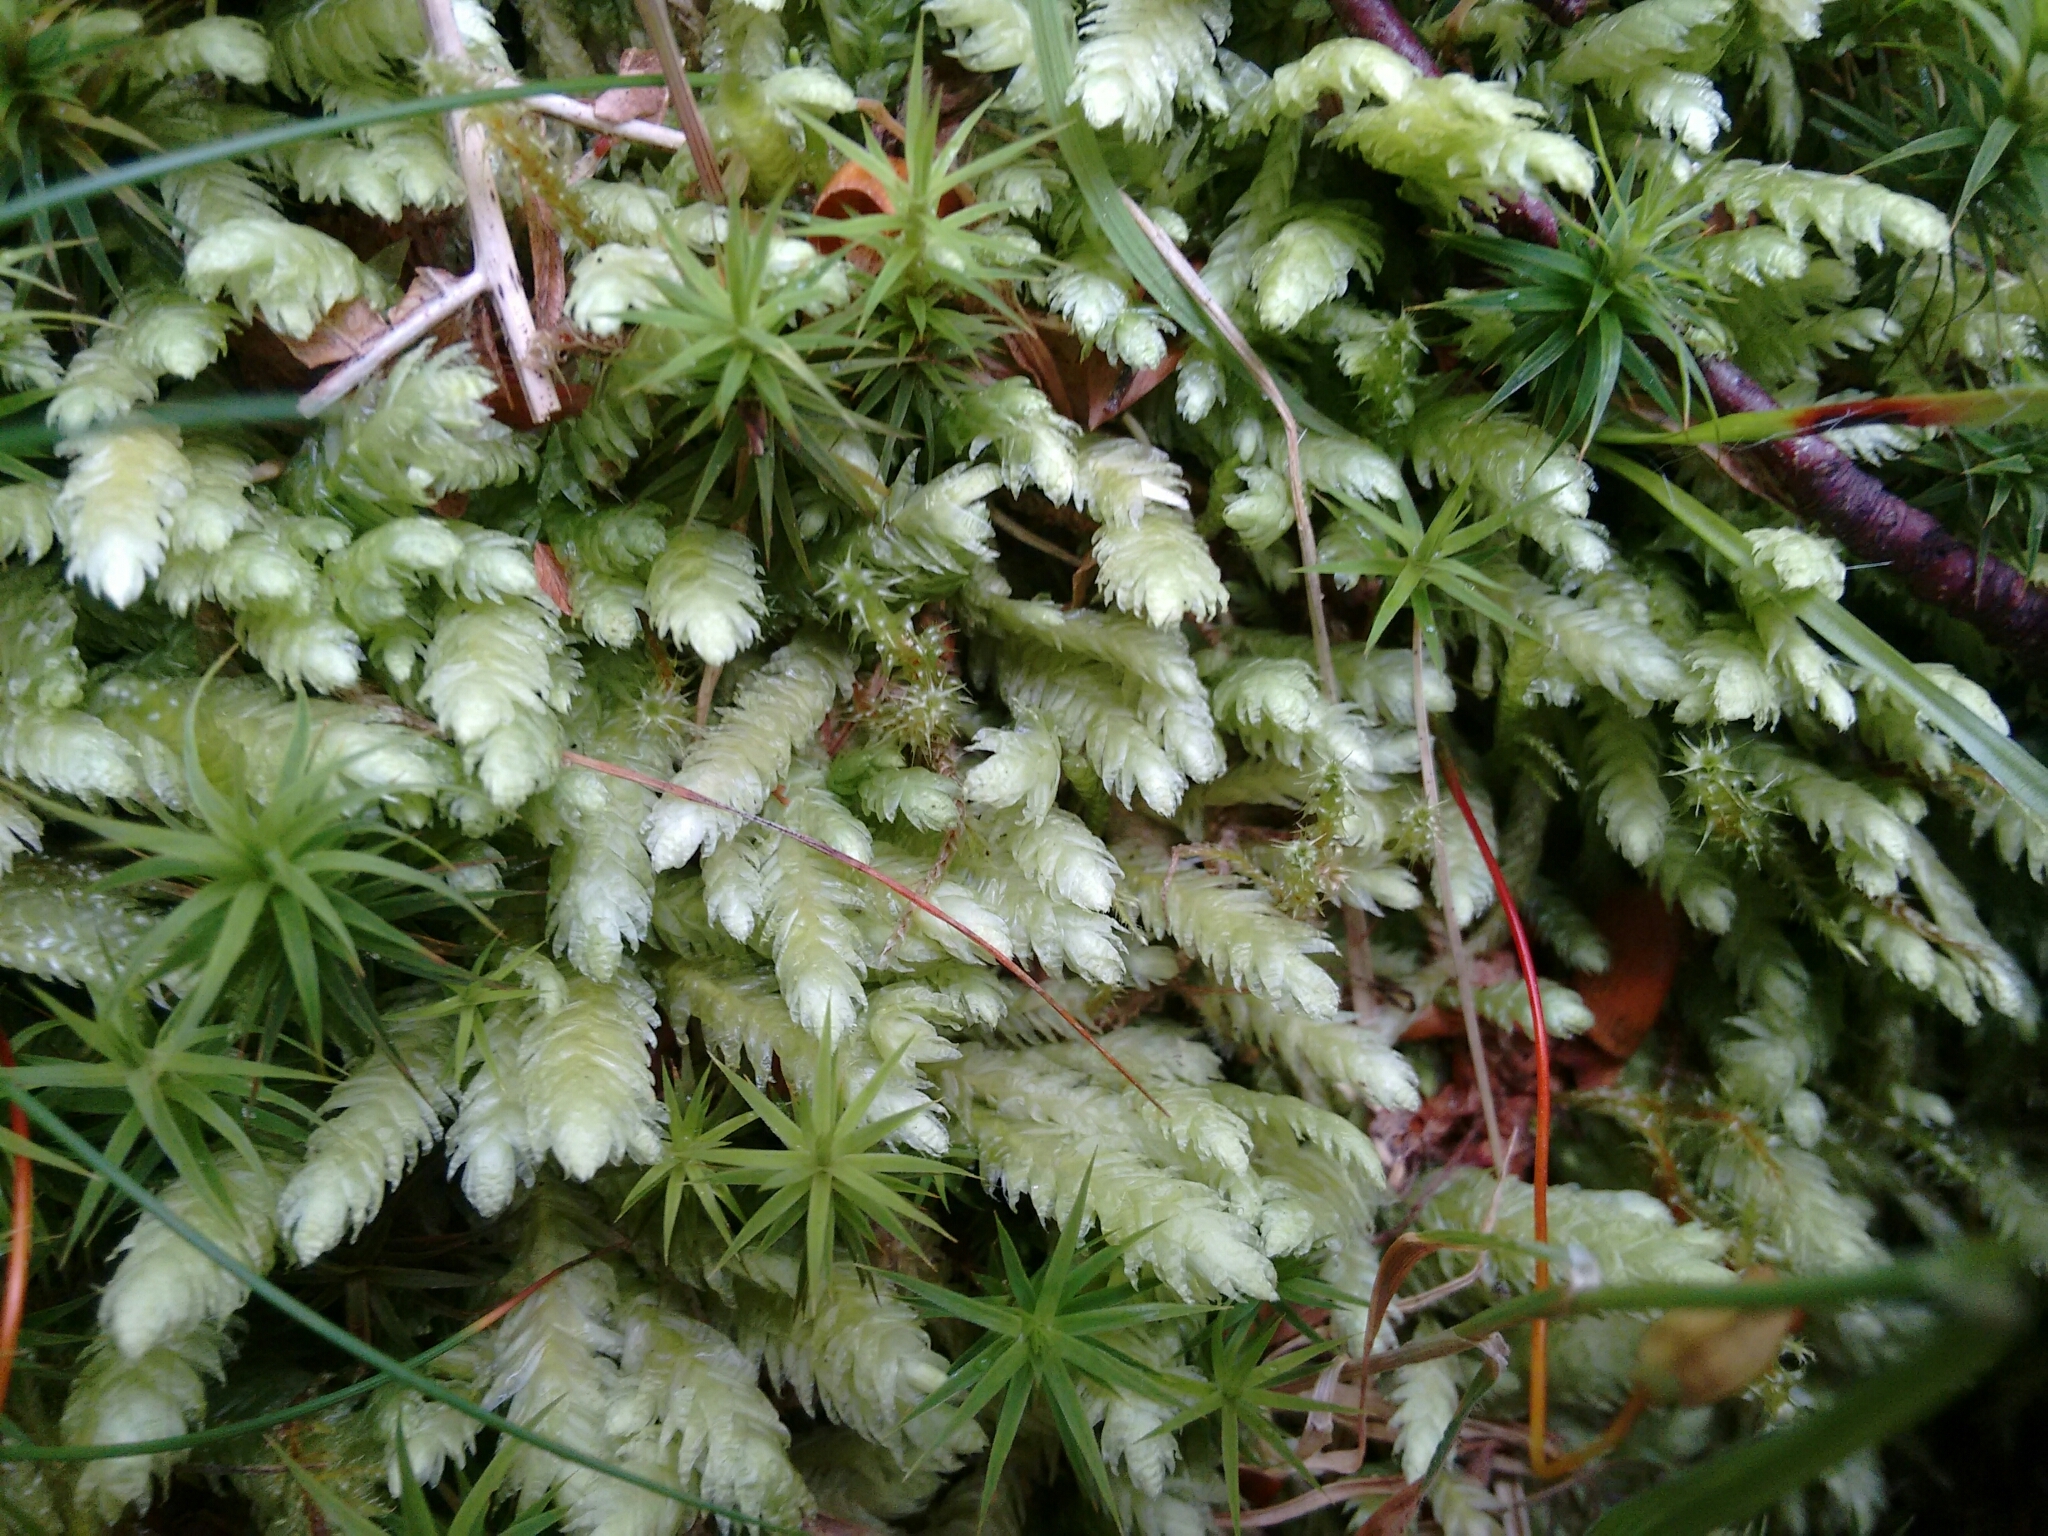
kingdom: Plantae
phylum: Bryophyta
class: Bryopsida
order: Hypnales
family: Plagiotheciaceae
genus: Plagiothecium
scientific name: Plagiothecium undulatum
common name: Waved silk-moss
